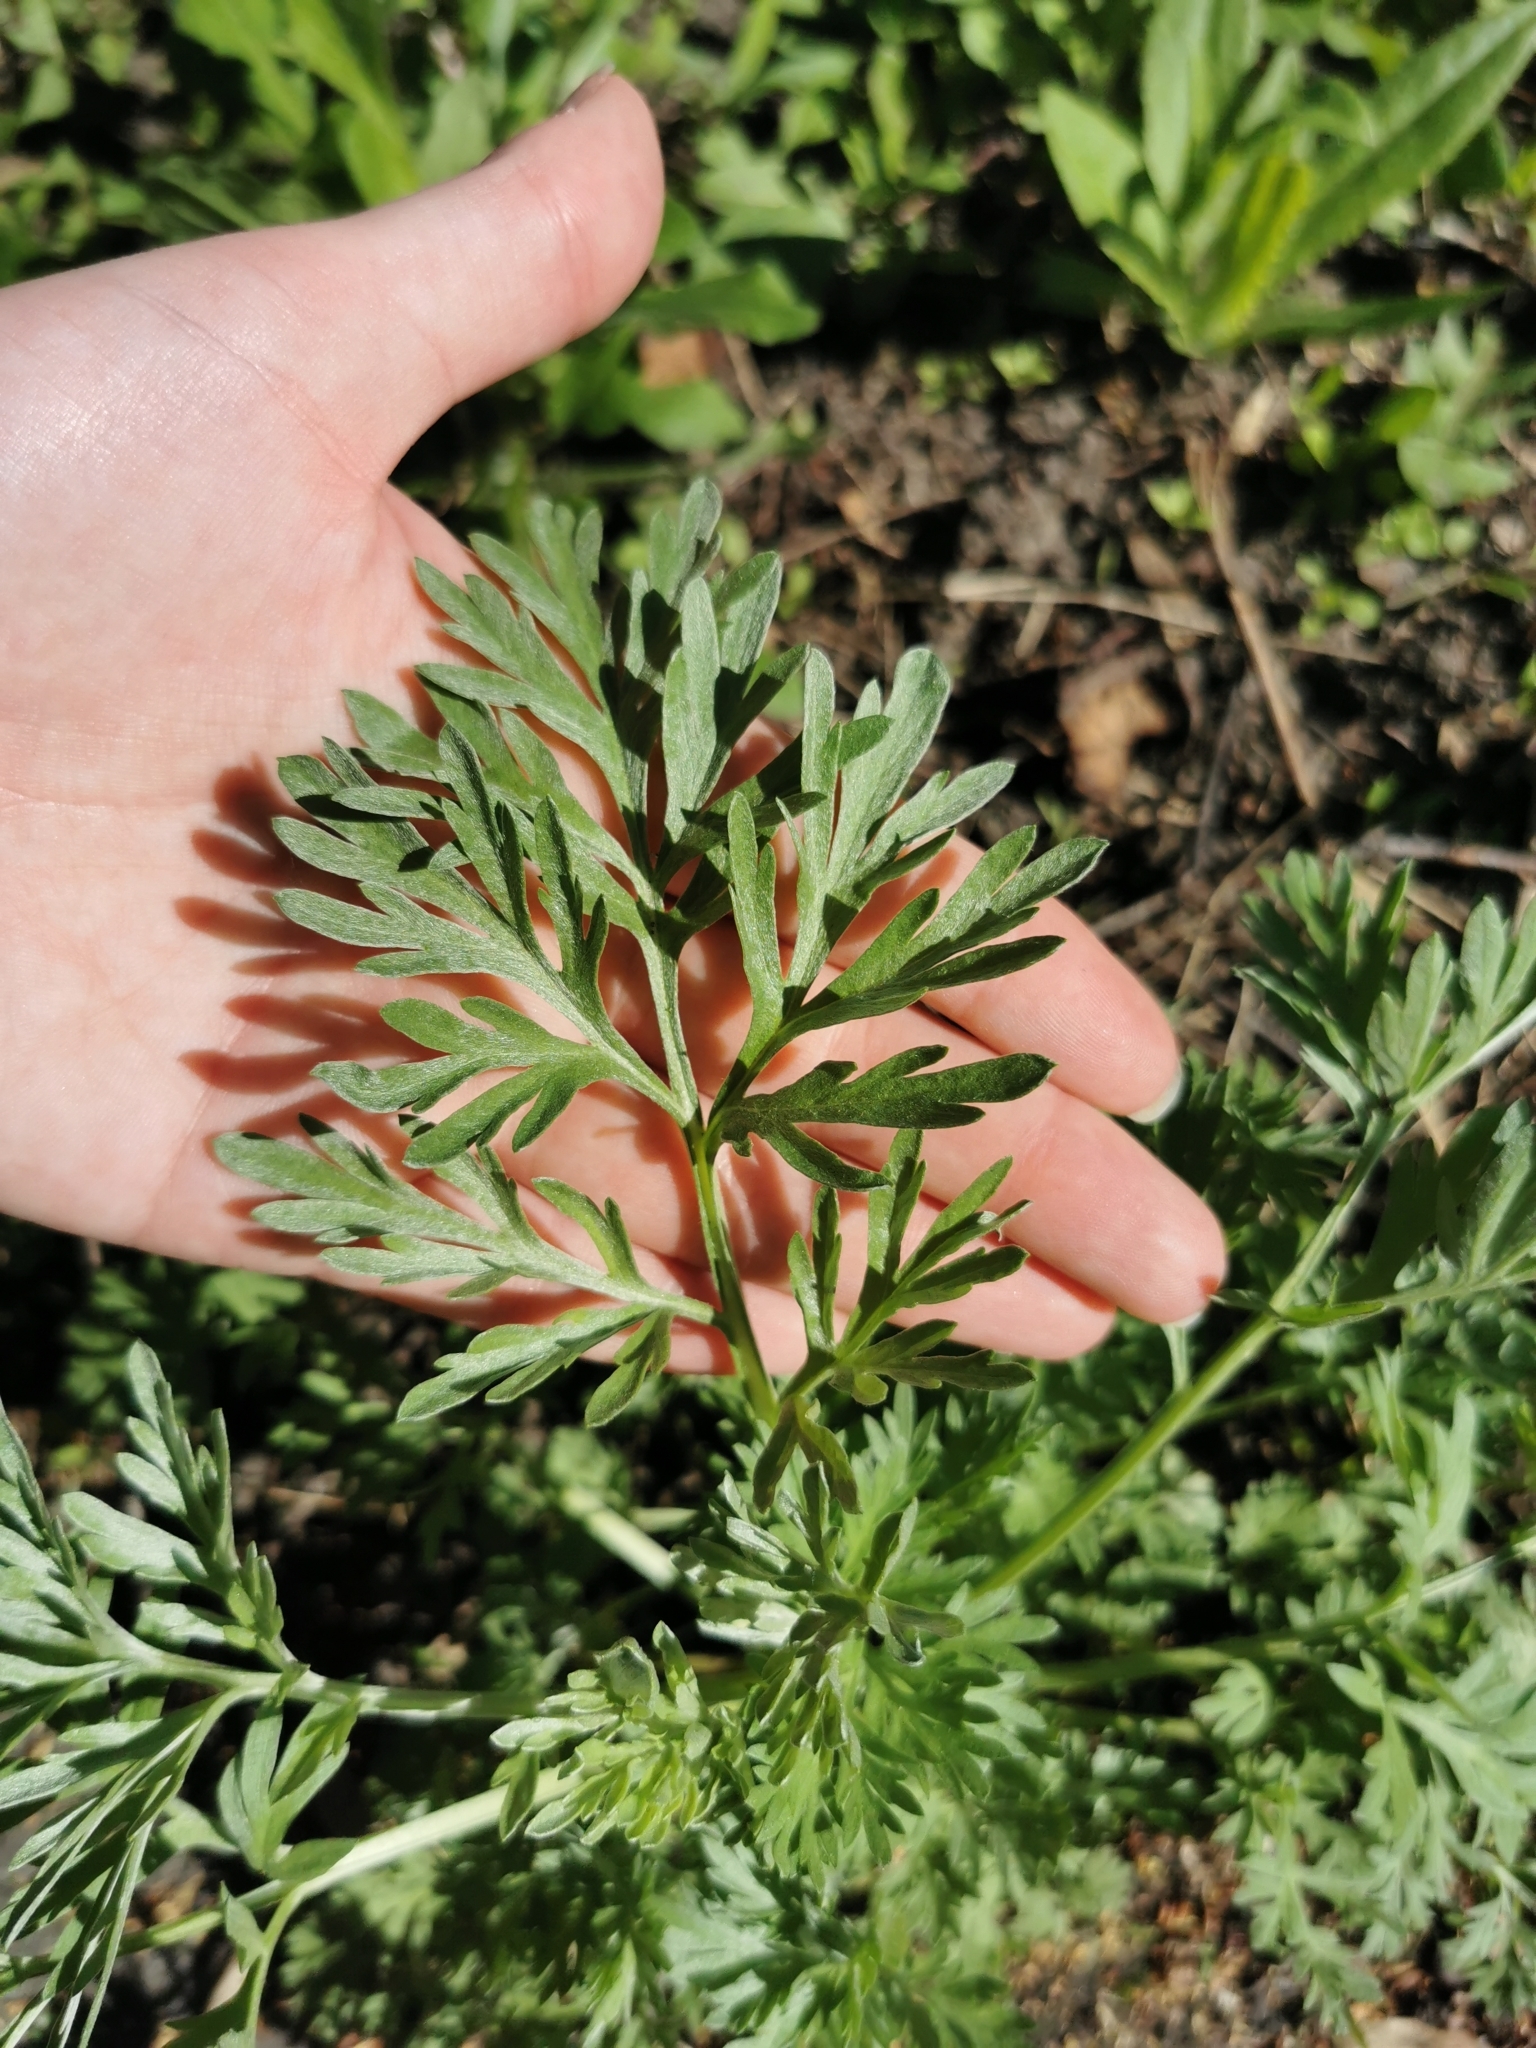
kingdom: Plantae
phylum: Tracheophyta
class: Magnoliopsida
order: Asterales
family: Asteraceae
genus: Artemisia
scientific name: Artemisia absinthium
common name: Wormwood
